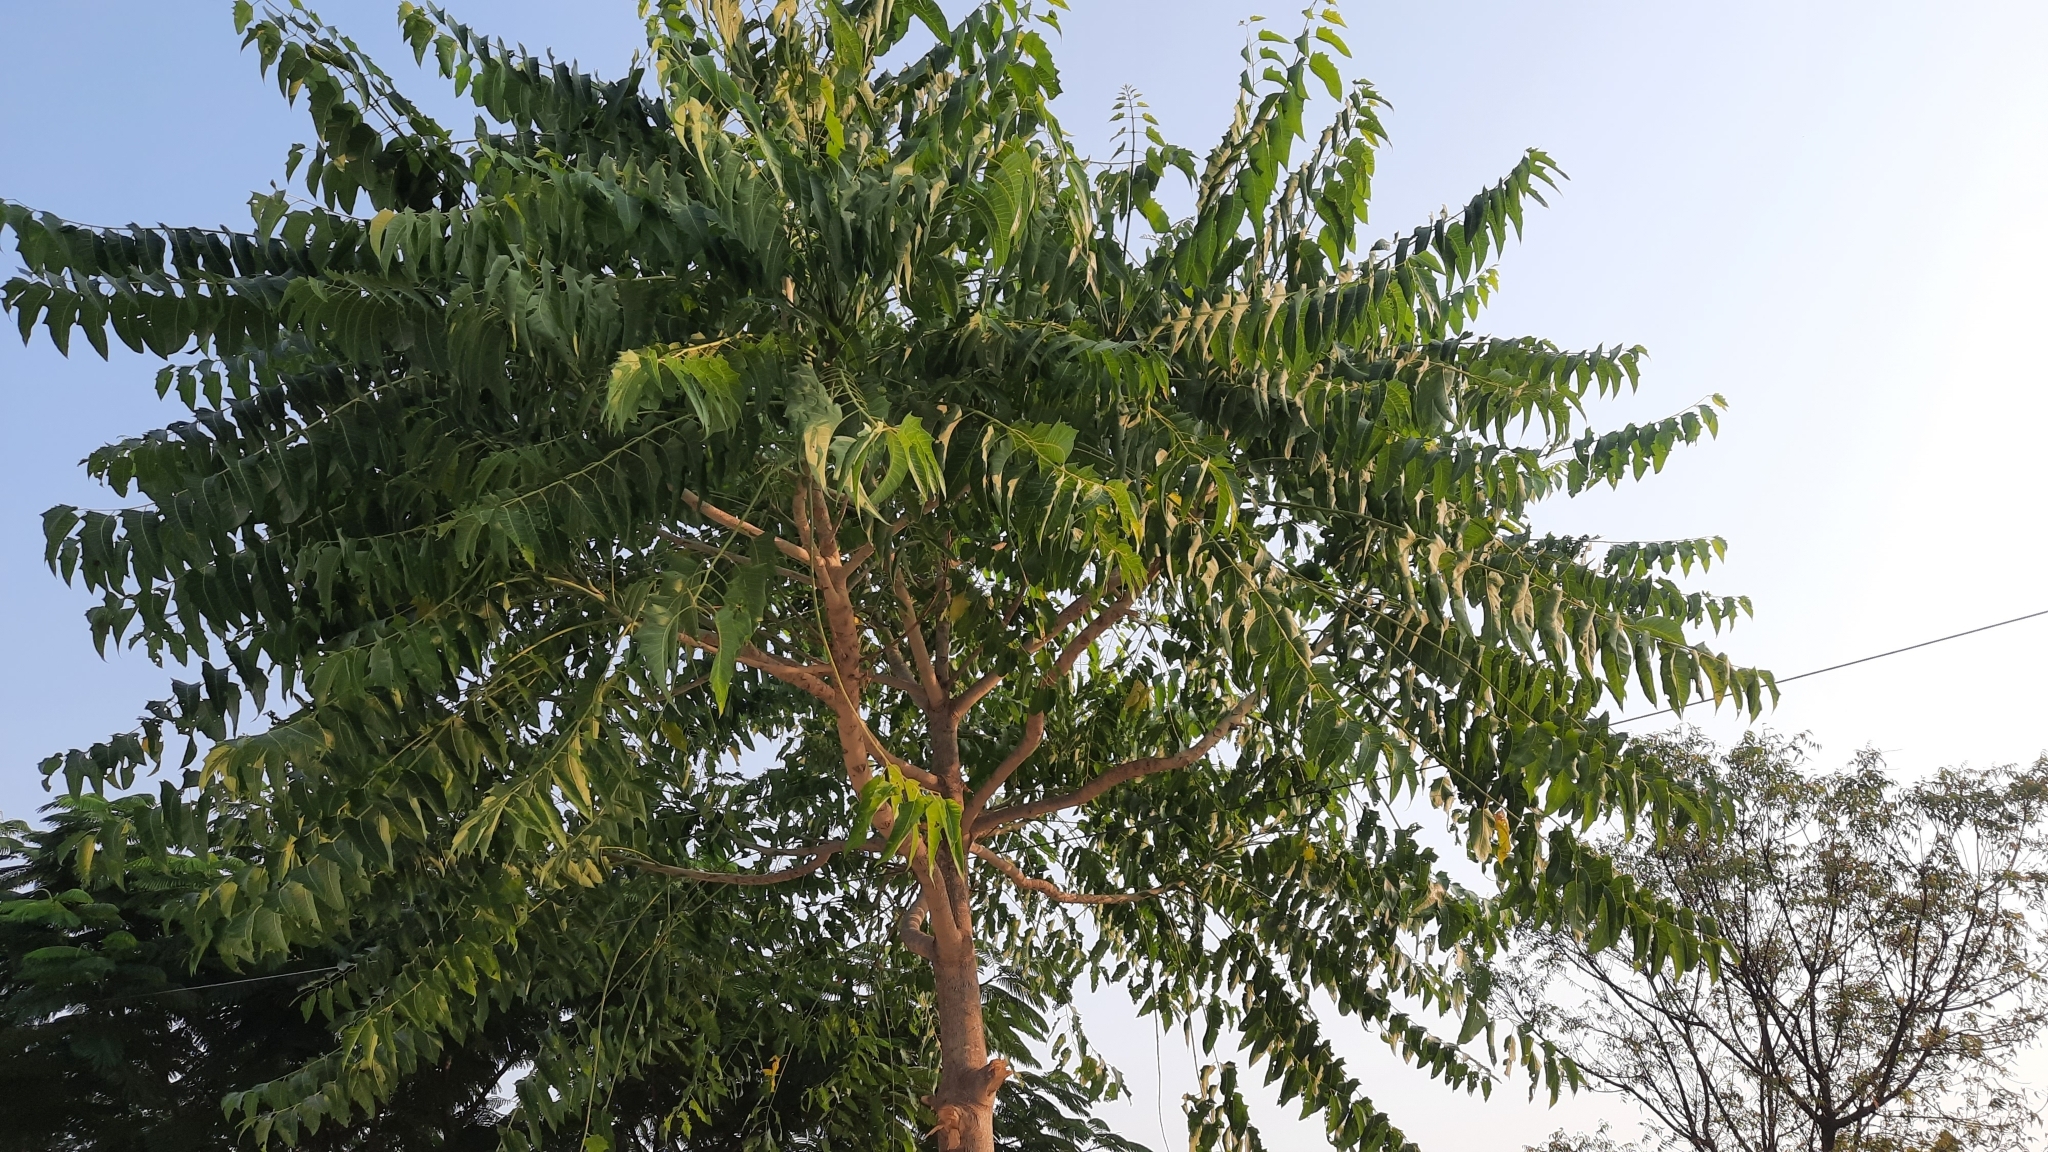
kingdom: Plantae
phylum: Tracheophyta
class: Magnoliopsida
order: Sapindales
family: Simaroubaceae
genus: Ailanthus
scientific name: Ailanthus excelsa
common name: Indian tree-of-heaven
